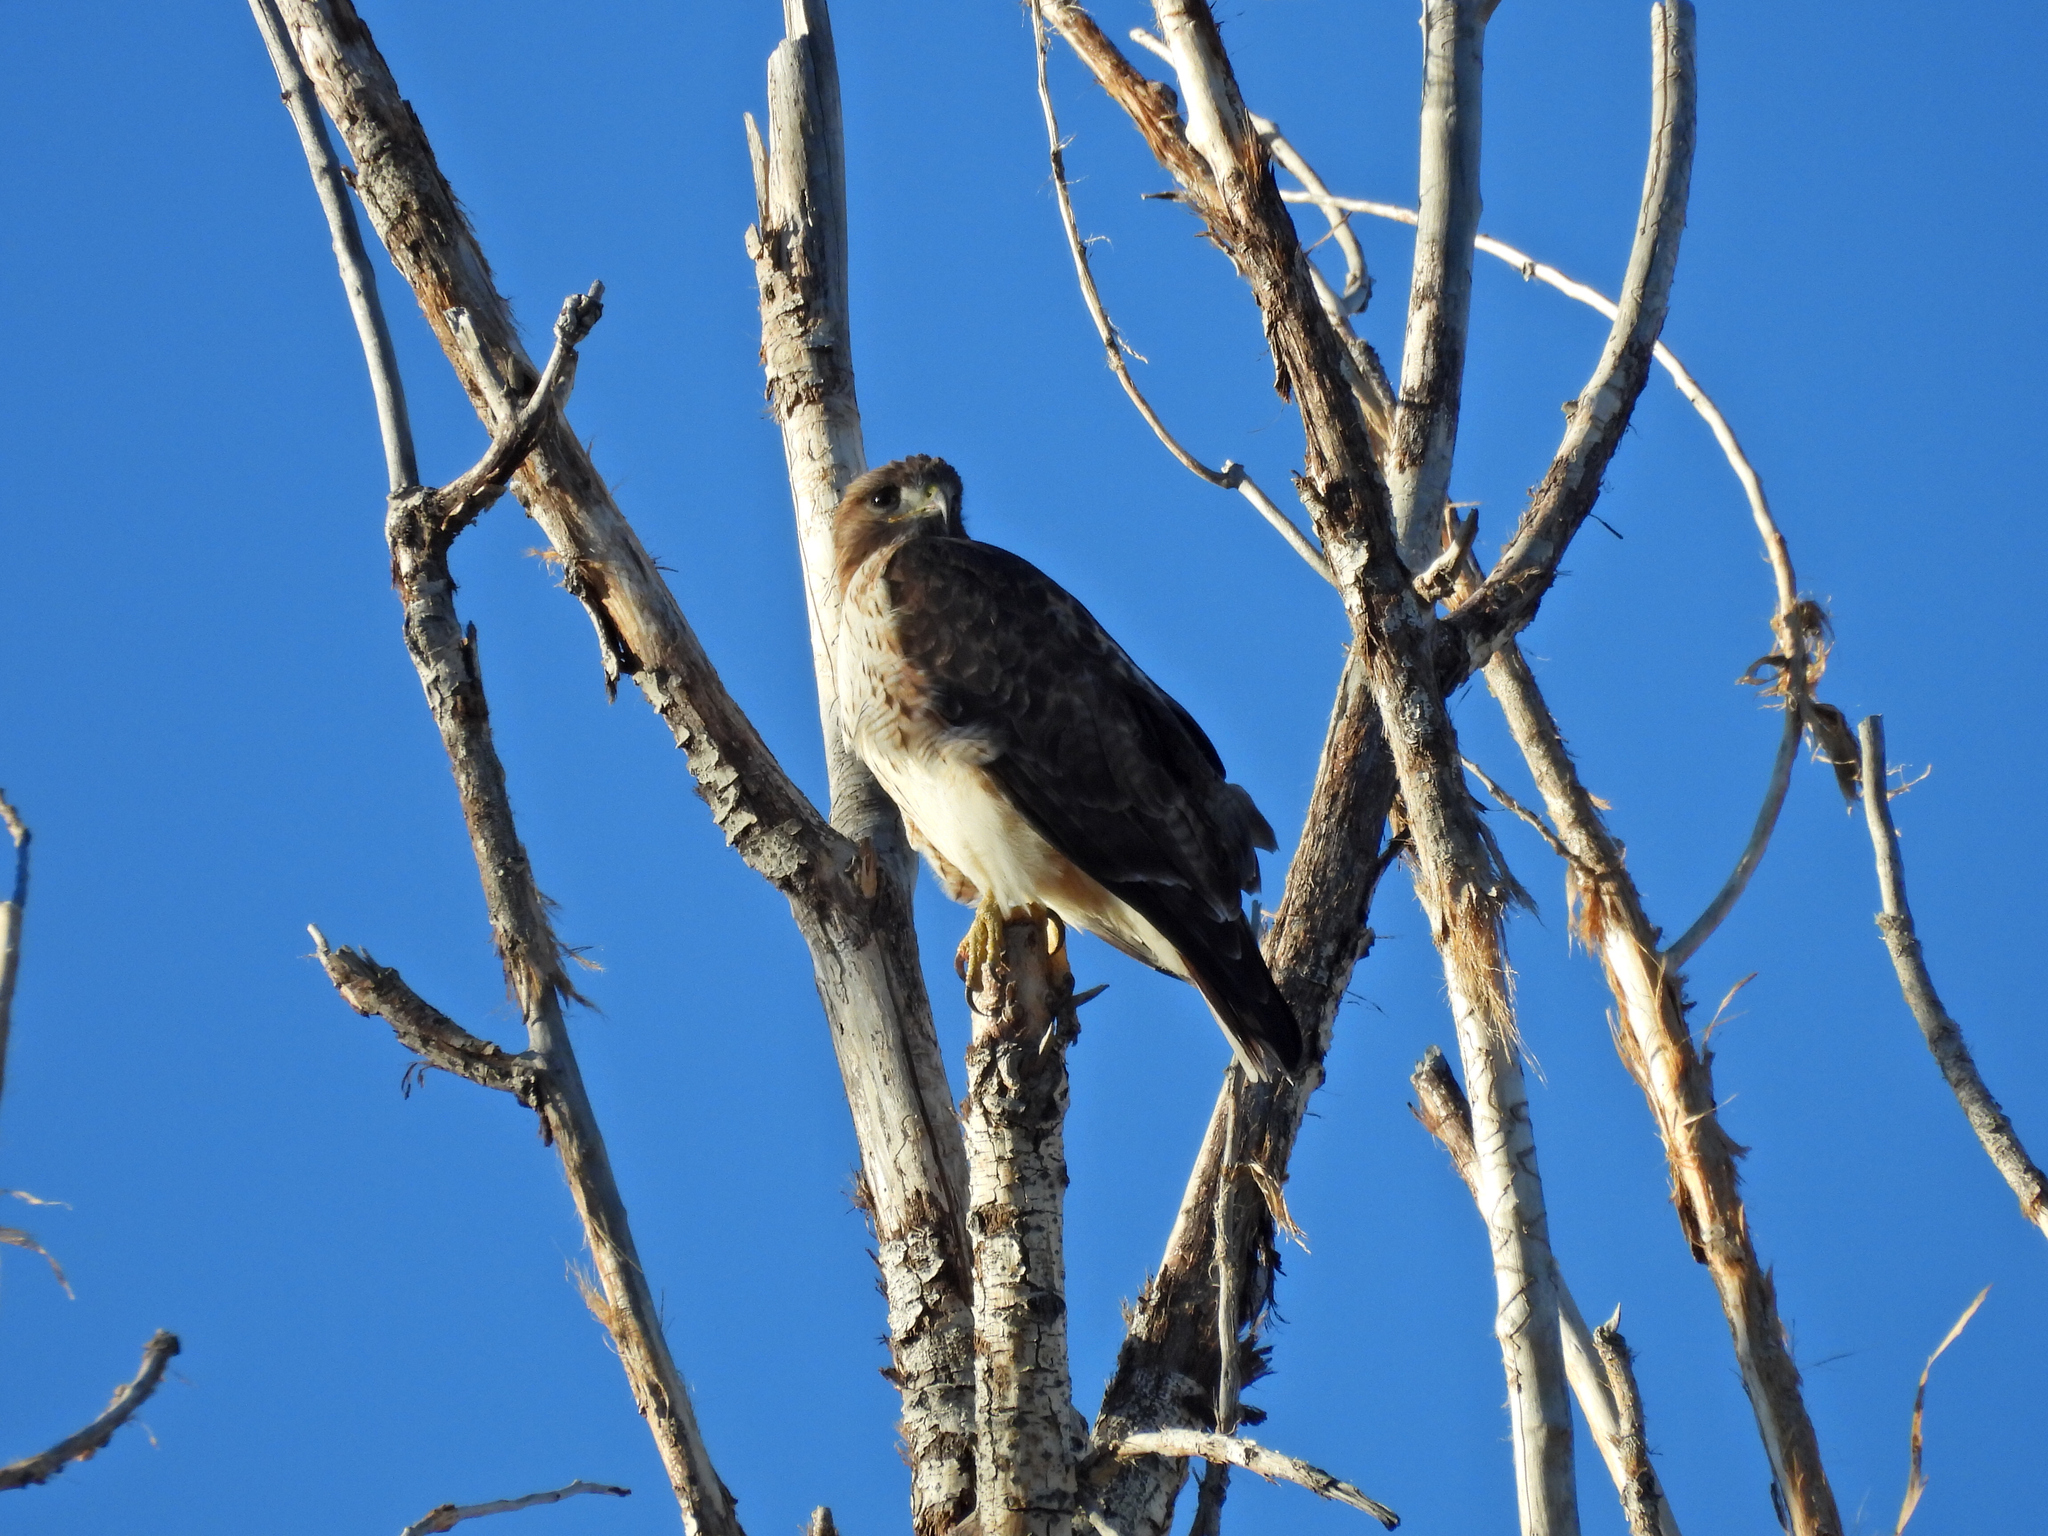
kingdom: Animalia
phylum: Chordata
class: Aves
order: Accipitriformes
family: Accipitridae
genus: Buteo
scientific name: Buteo jamaicensis
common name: Red-tailed hawk
